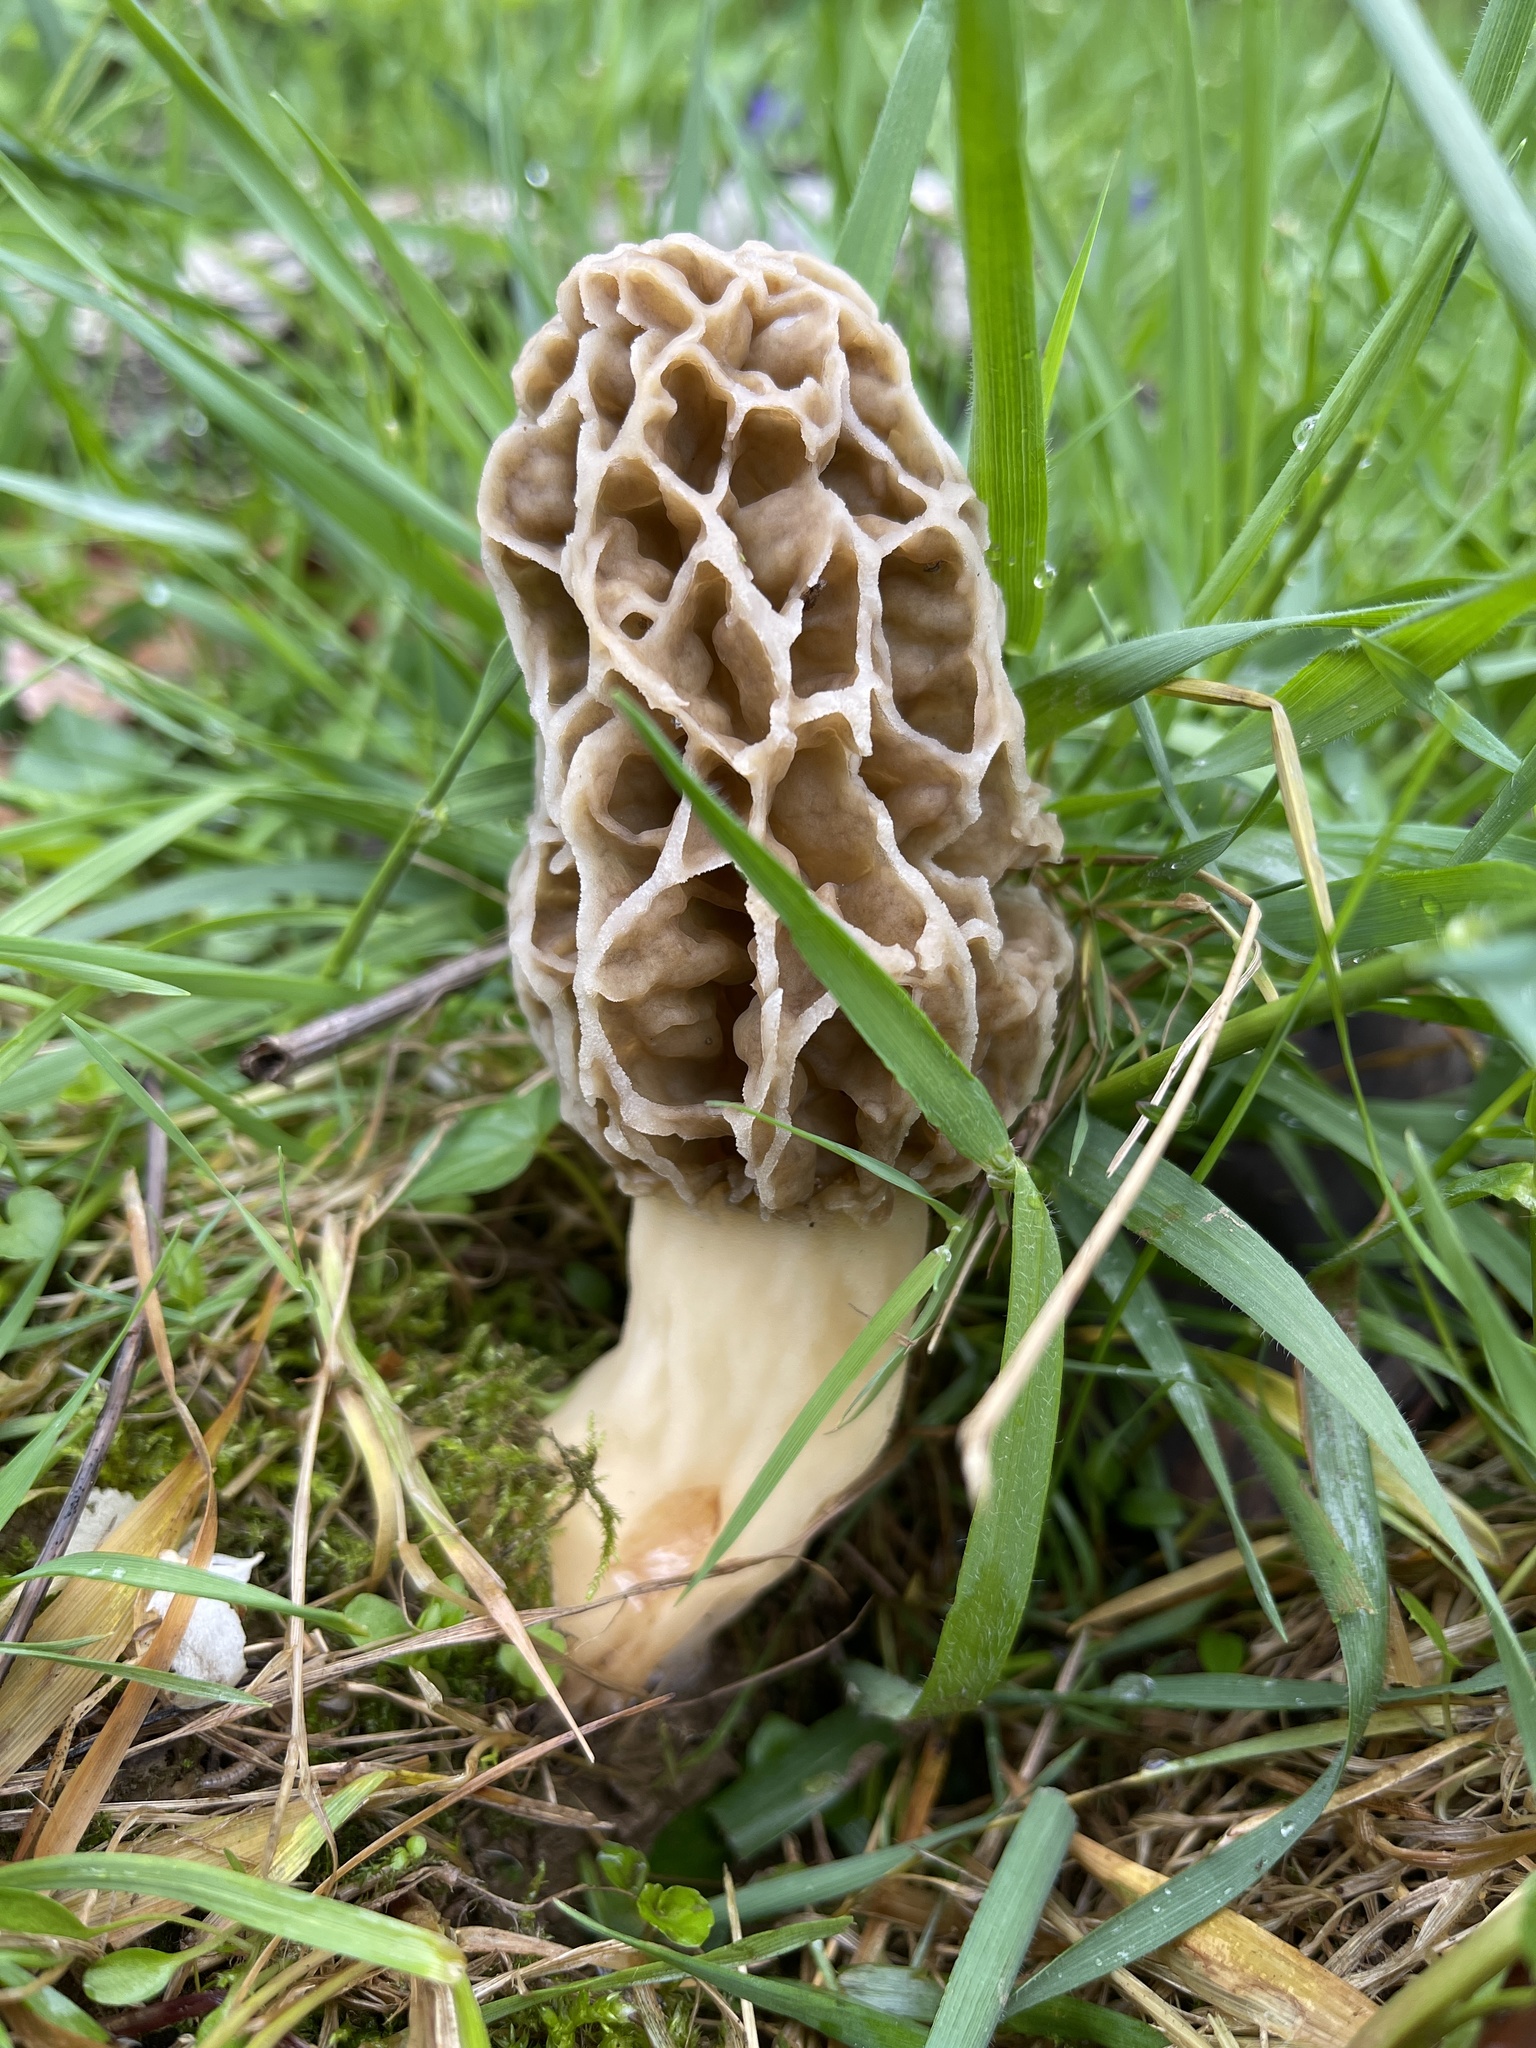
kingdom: Fungi
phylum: Ascomycota
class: Pezizomycetes
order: Pezizales
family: Morchellaceae
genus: Morchella
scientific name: Morchella americana
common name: White morel
